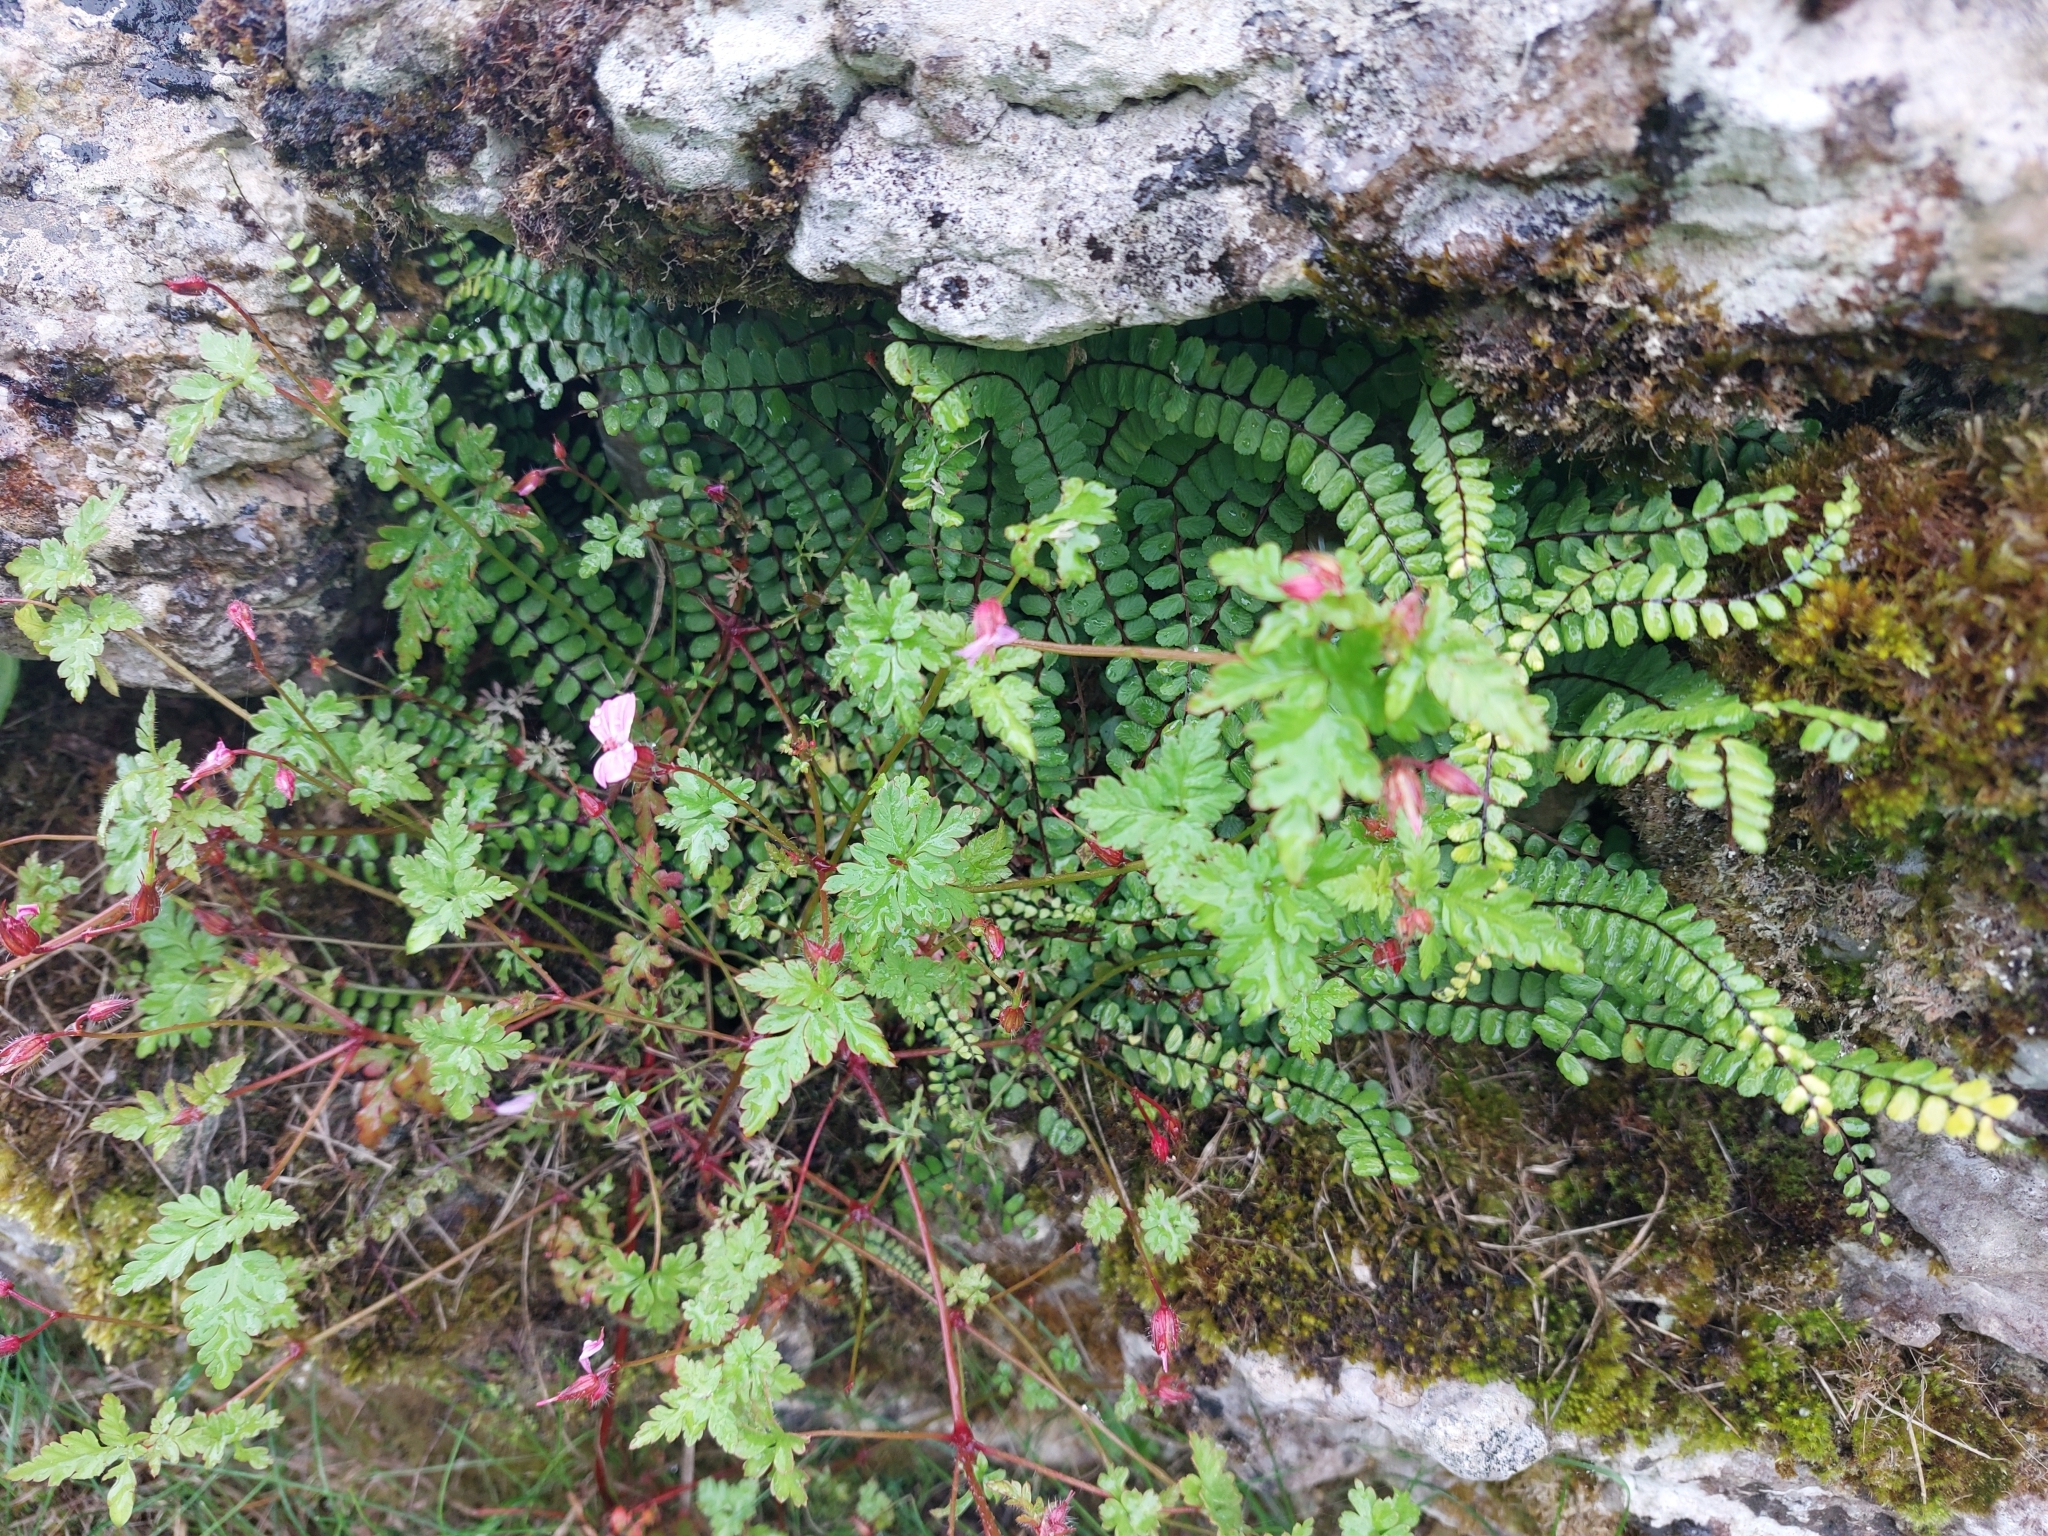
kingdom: Plantae
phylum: Tracheophyta
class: Polypodiopsida
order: Polypodiales
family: Aspleniaceae
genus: Asplenium
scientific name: Asplenium trichomanes
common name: Maidenhair spleenwort
